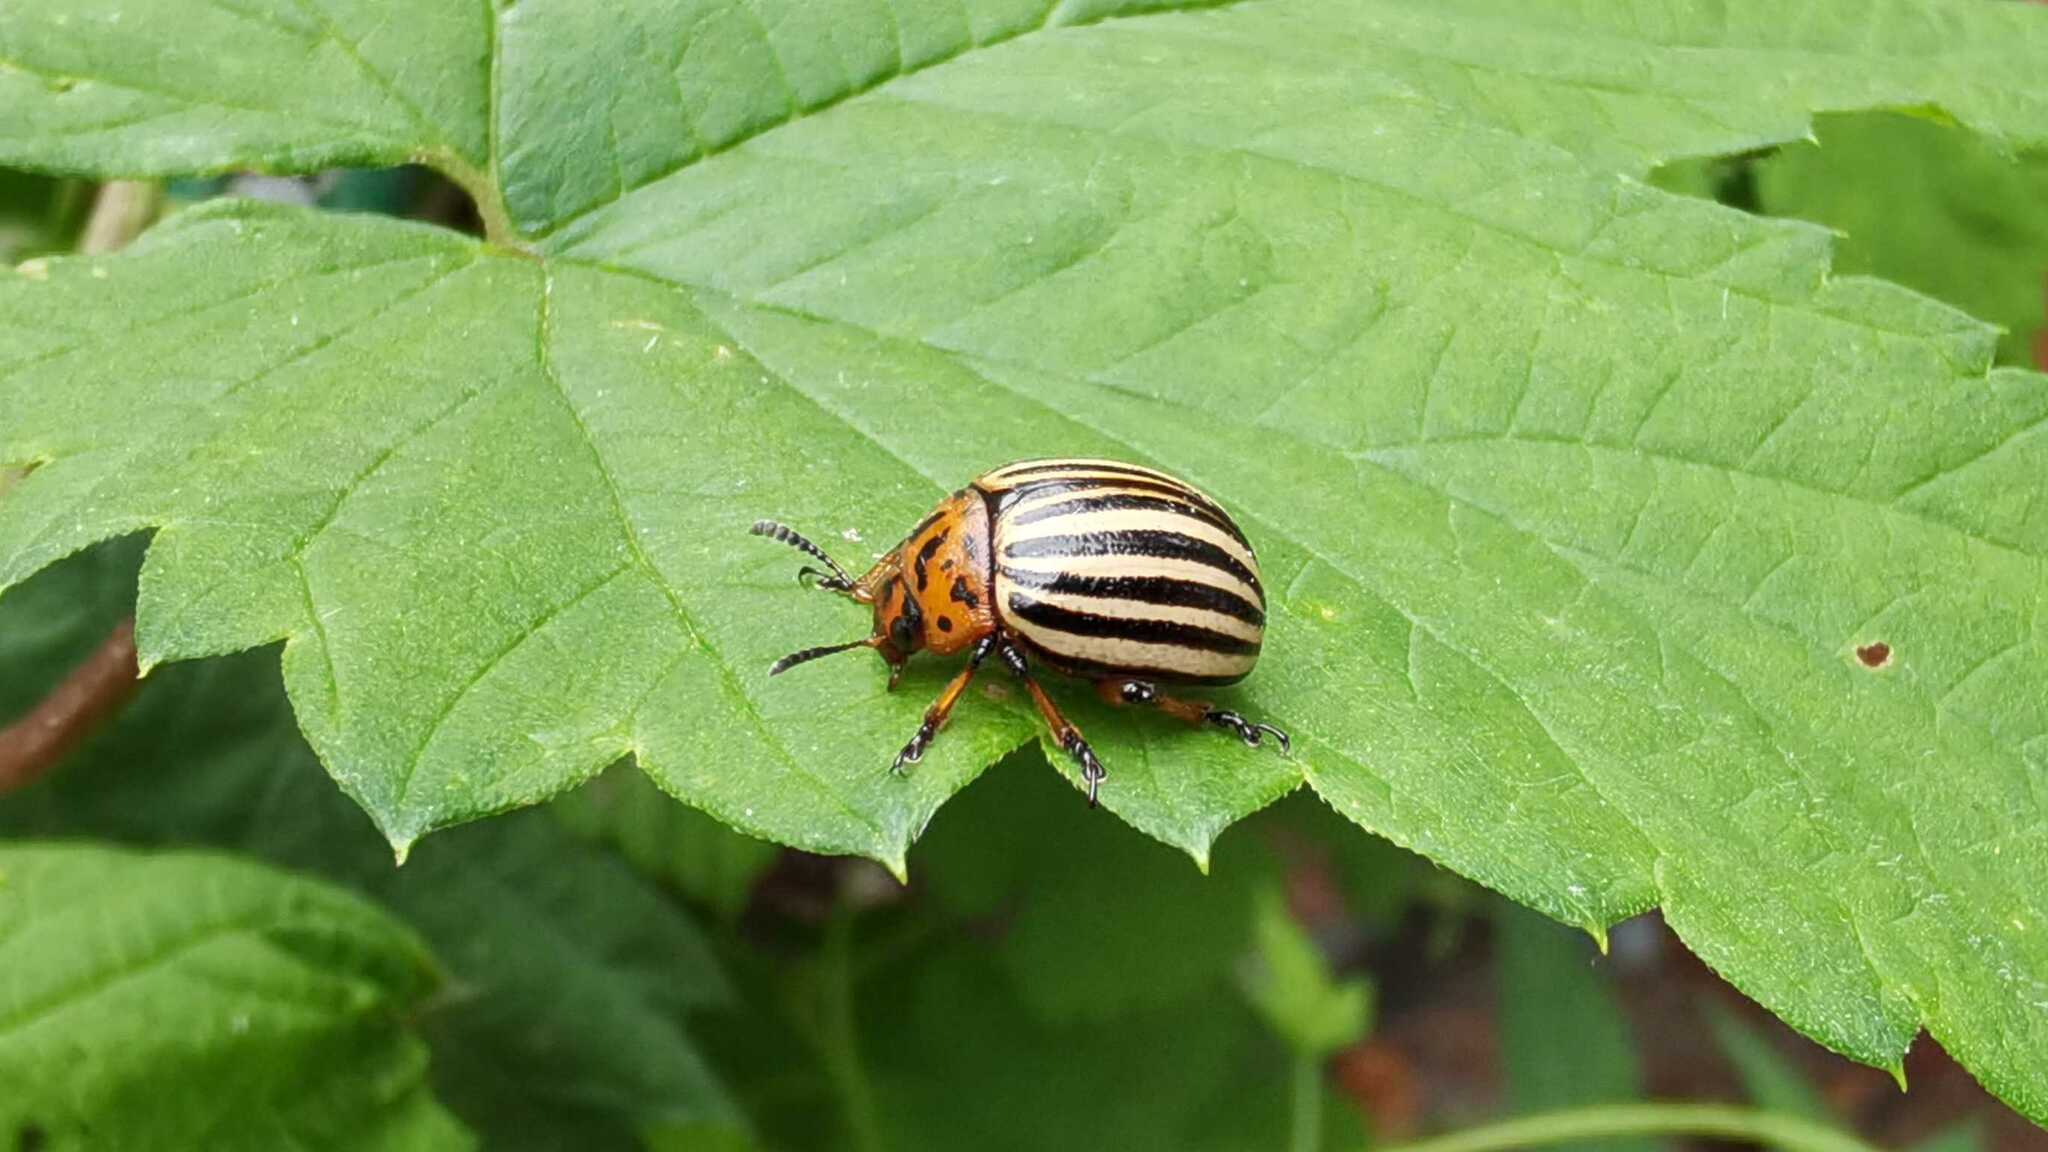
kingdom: Animalia
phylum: Arthropoda
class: Insecta
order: Coleoptera
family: Chrysomelidae
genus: Leptinotarsa
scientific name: Leptinotarsa decemlineata
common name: Colorado potato beetle
